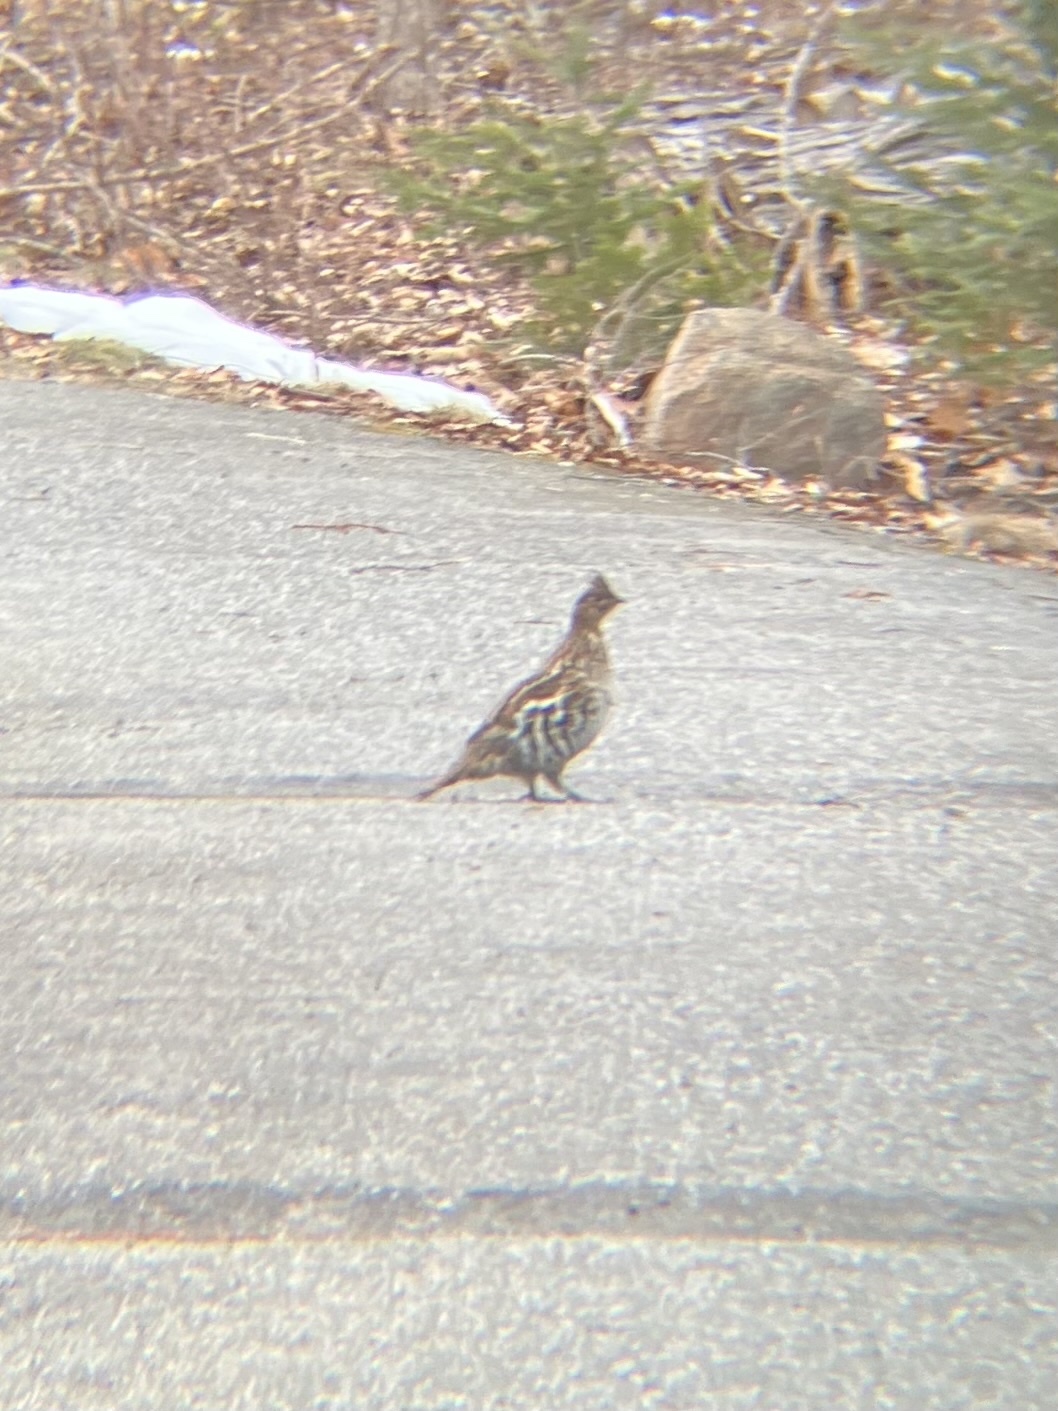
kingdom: Animalia
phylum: Chordata
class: Aves
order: Galliformes
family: Phasianidae
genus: Bonasa
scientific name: Bonasa umbellus
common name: Ruffed grouse
